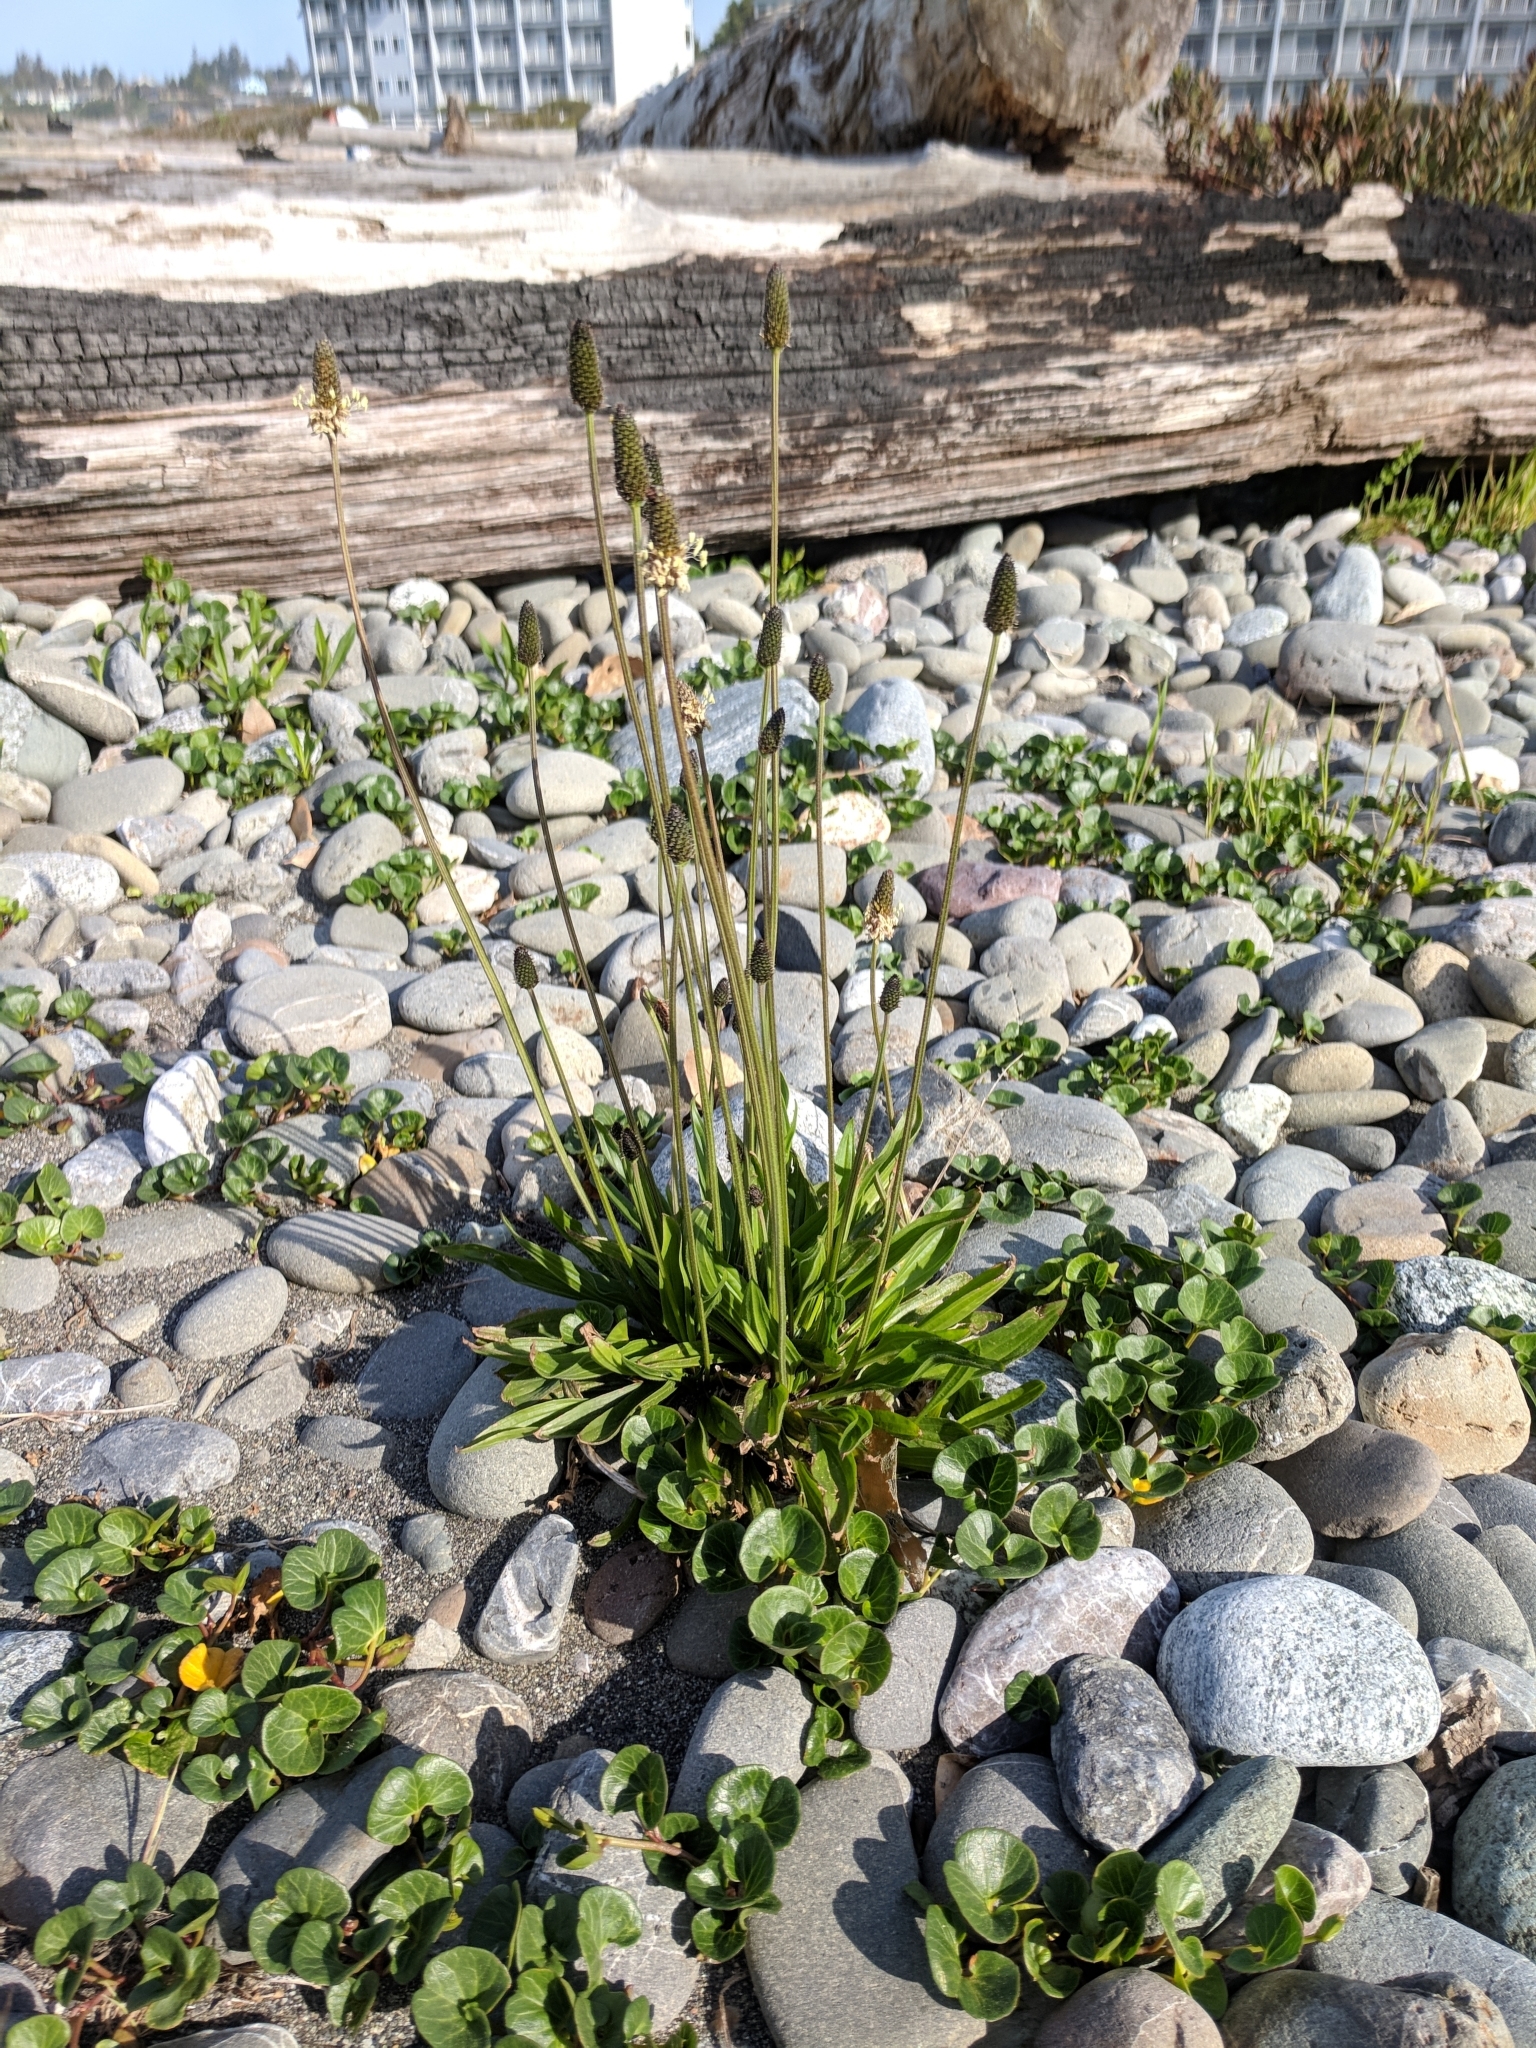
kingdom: Plantae
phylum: Tracheophyta
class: Magnoliopsida
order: Lamiales
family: Plantaginaceae
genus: Plantago
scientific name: Plantago lanceolata
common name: Ribwort plantain
